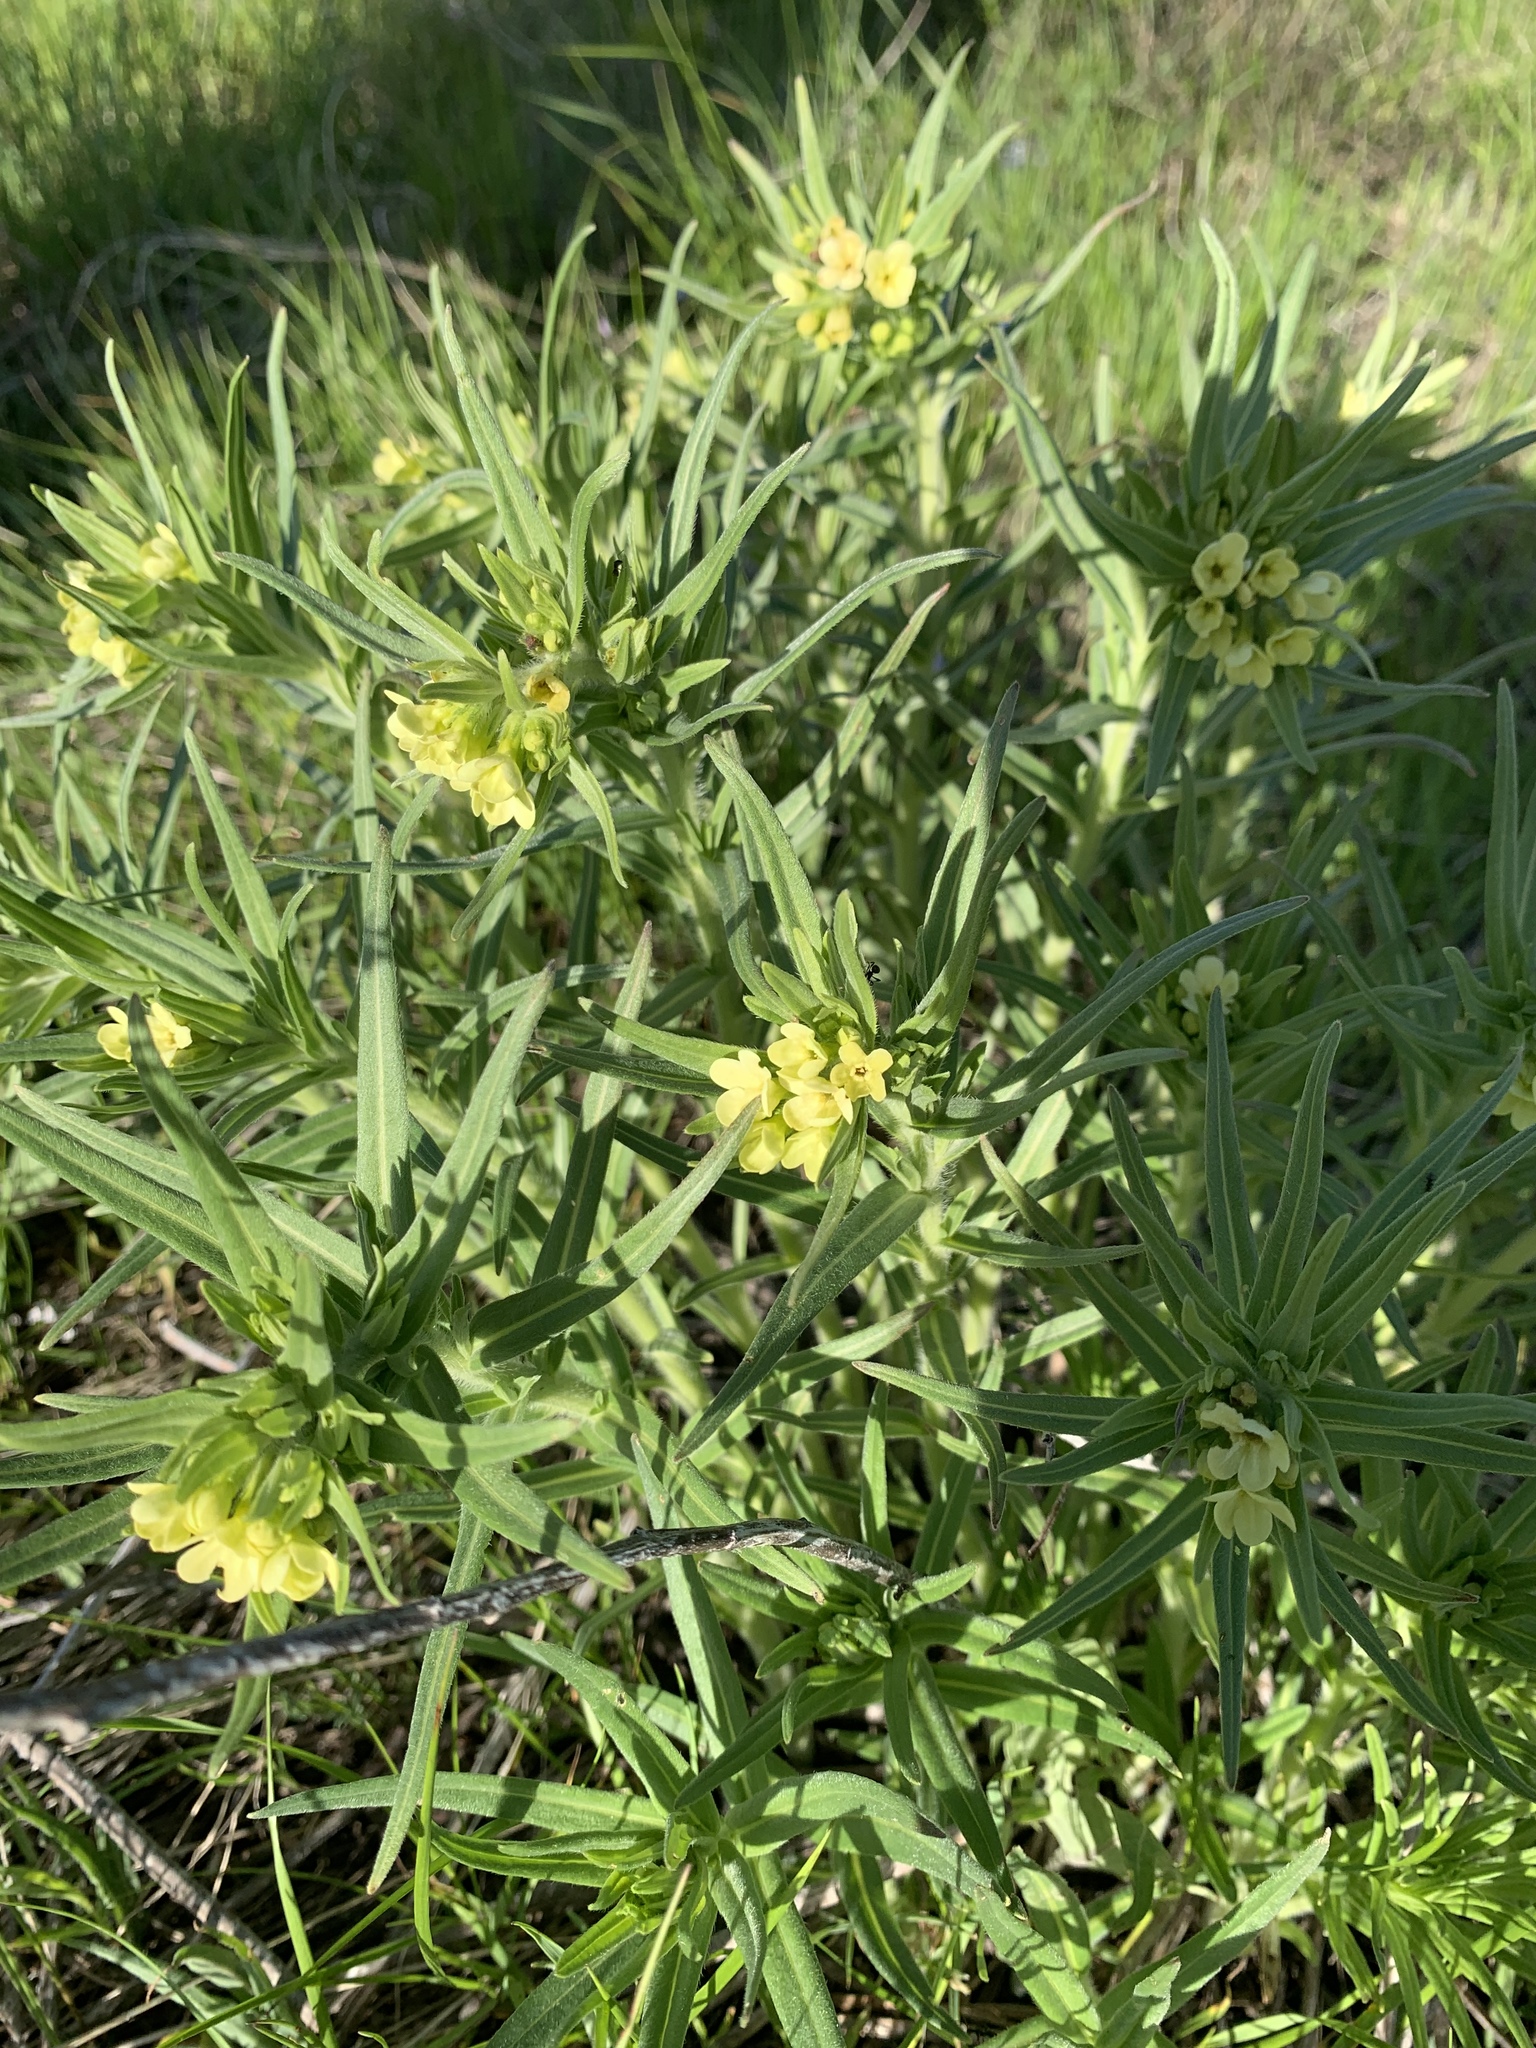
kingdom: Plantae
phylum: Tracheophyta
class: Magnoliopsida
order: Boraginales
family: Boraginaceae
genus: Lithospermum
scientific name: Lithospermum ruderale
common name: Western gromwell
